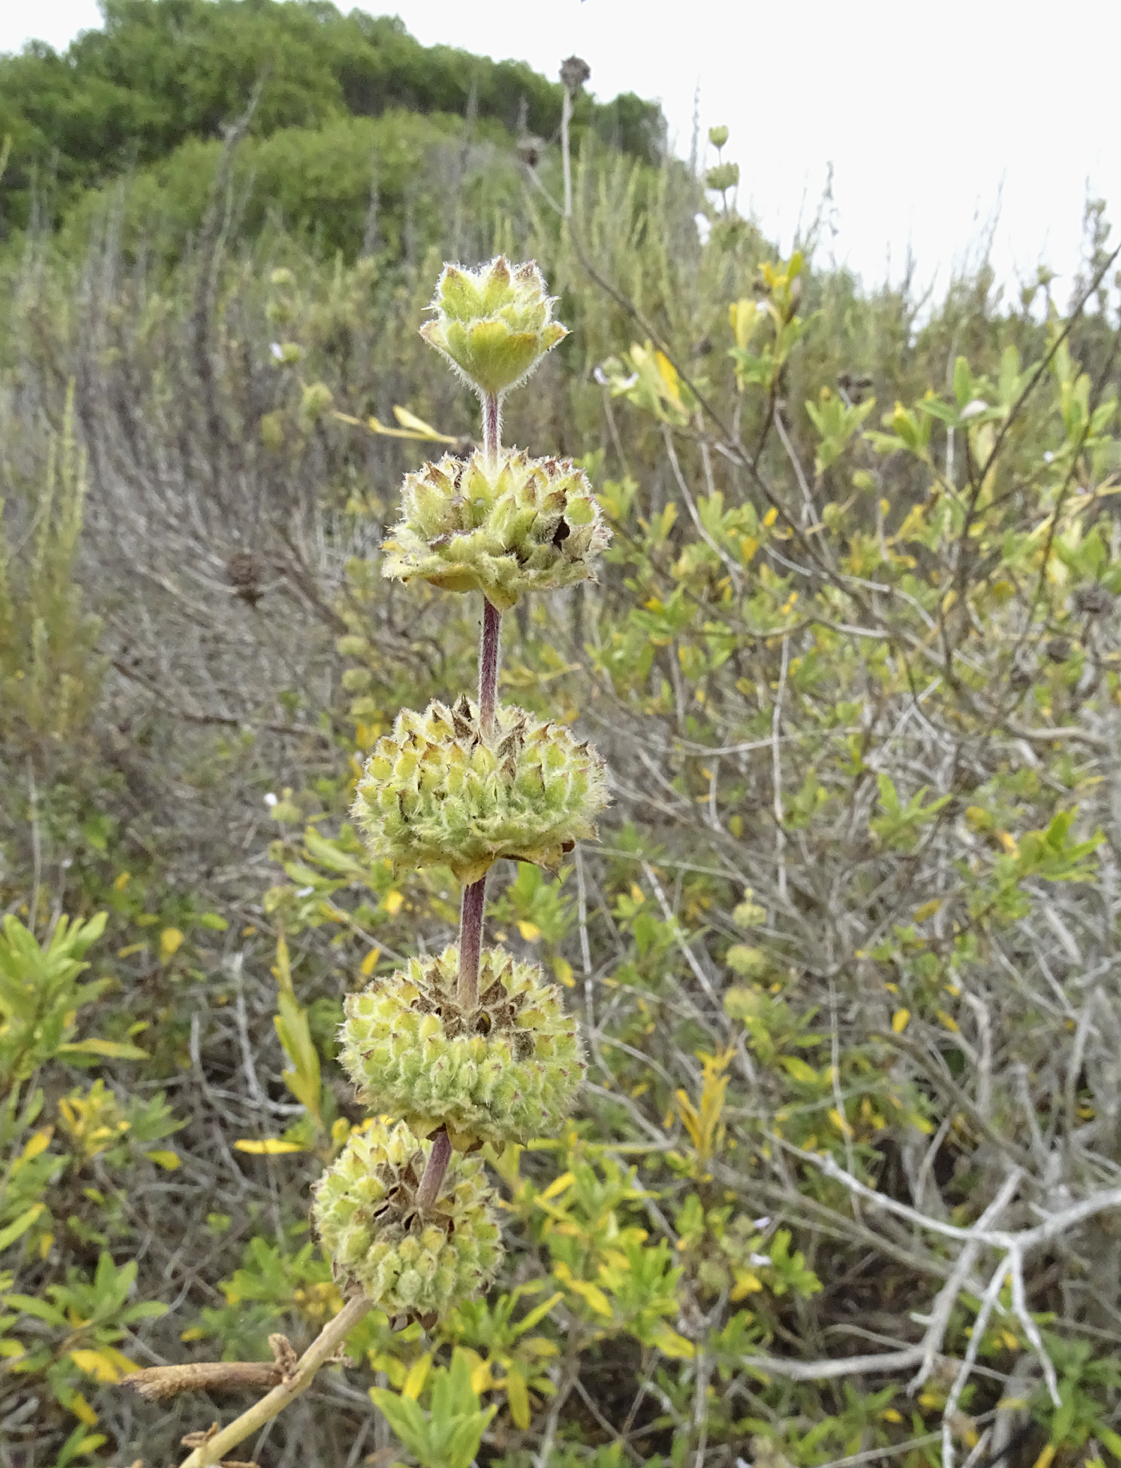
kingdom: Plantae
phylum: Tracheophyta
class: Magnoliopsida
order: Lamiales
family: Lamiaceae
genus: Salvia
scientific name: Salvia mellifera
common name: Black sage
